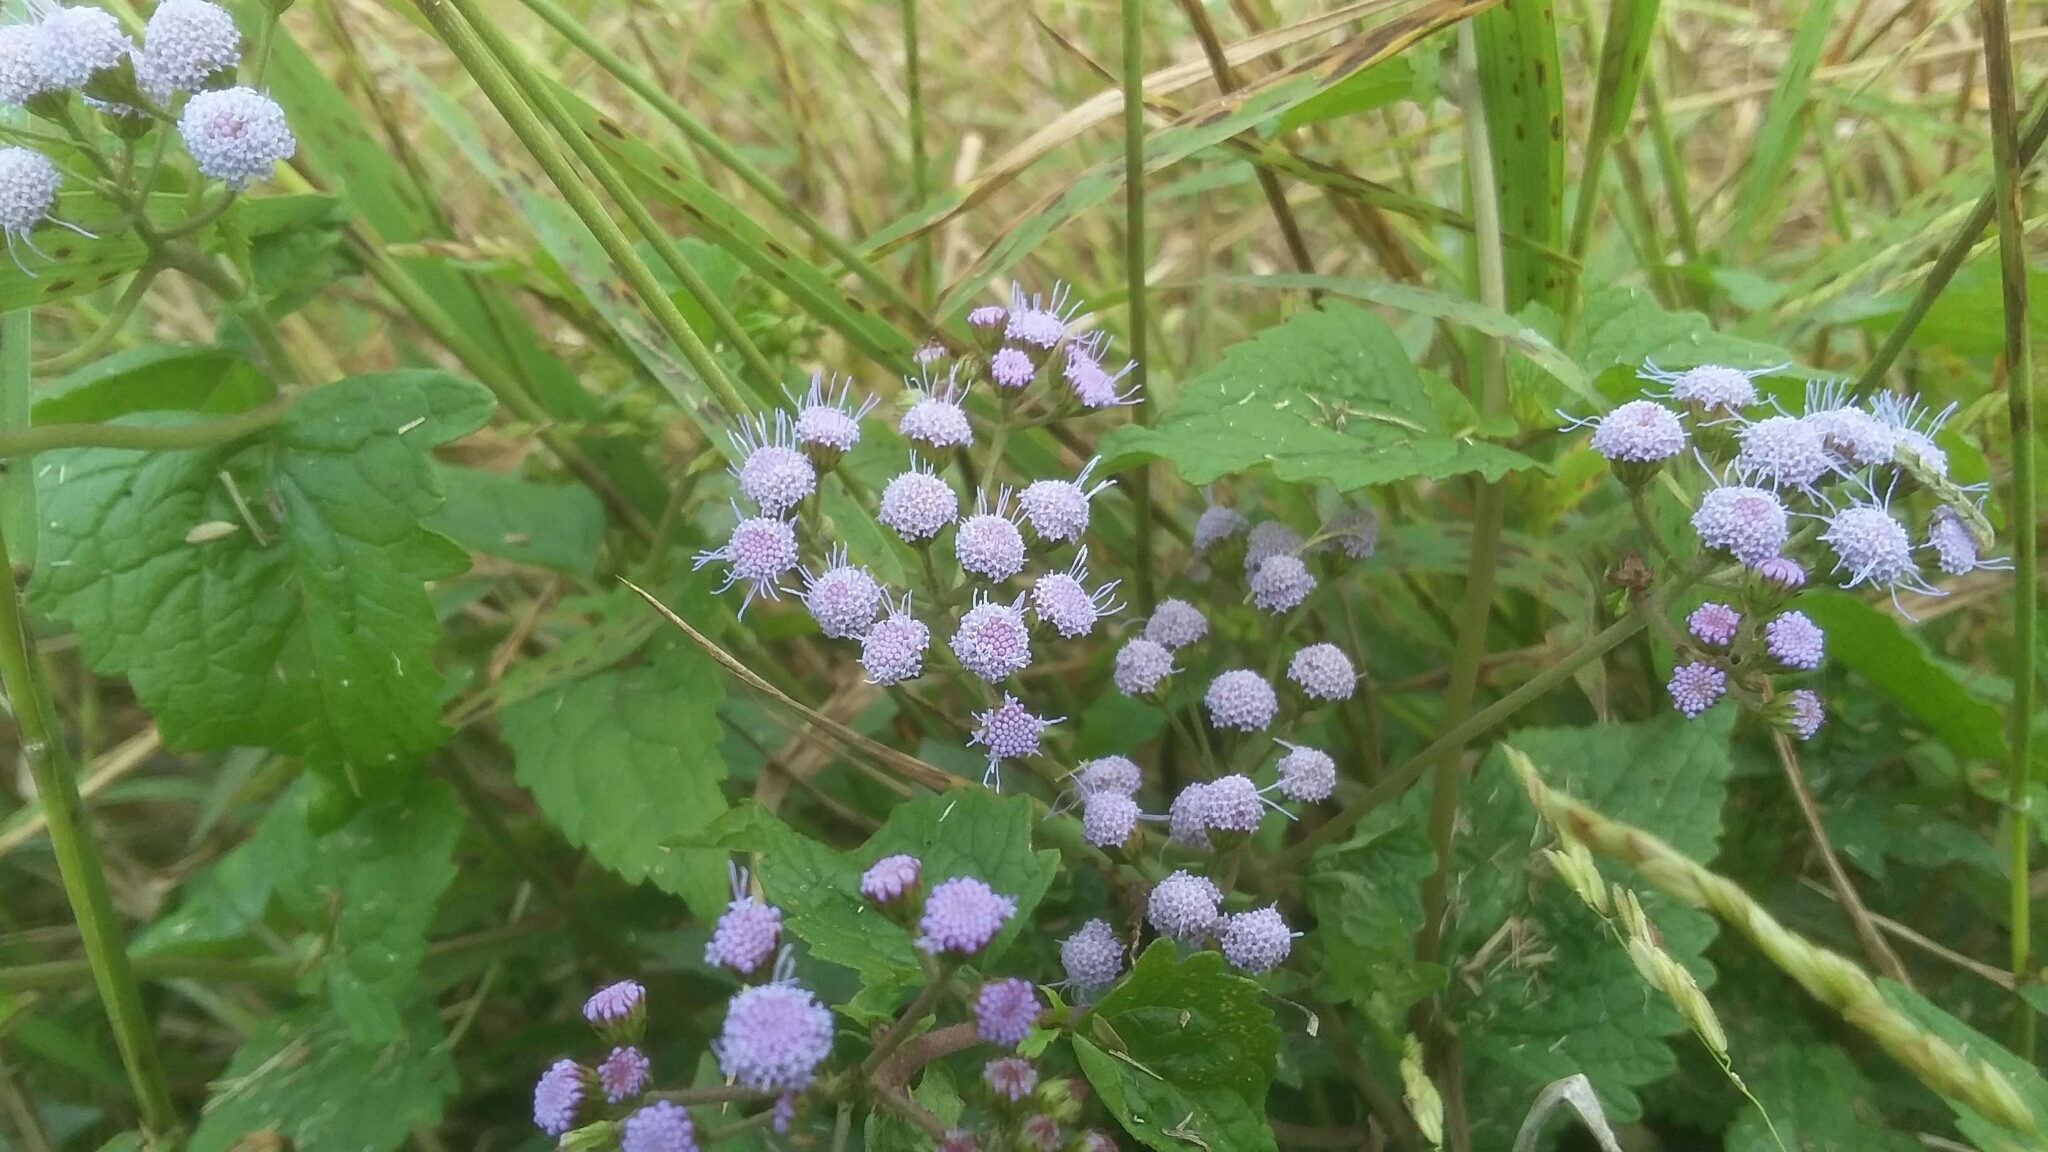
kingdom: Plantae
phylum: Tracheophyta
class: Magnoliopsida
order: Asterales
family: Asteraceae
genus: Conoclinium
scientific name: Conoclinium coelestinum
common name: Blue mistflower
